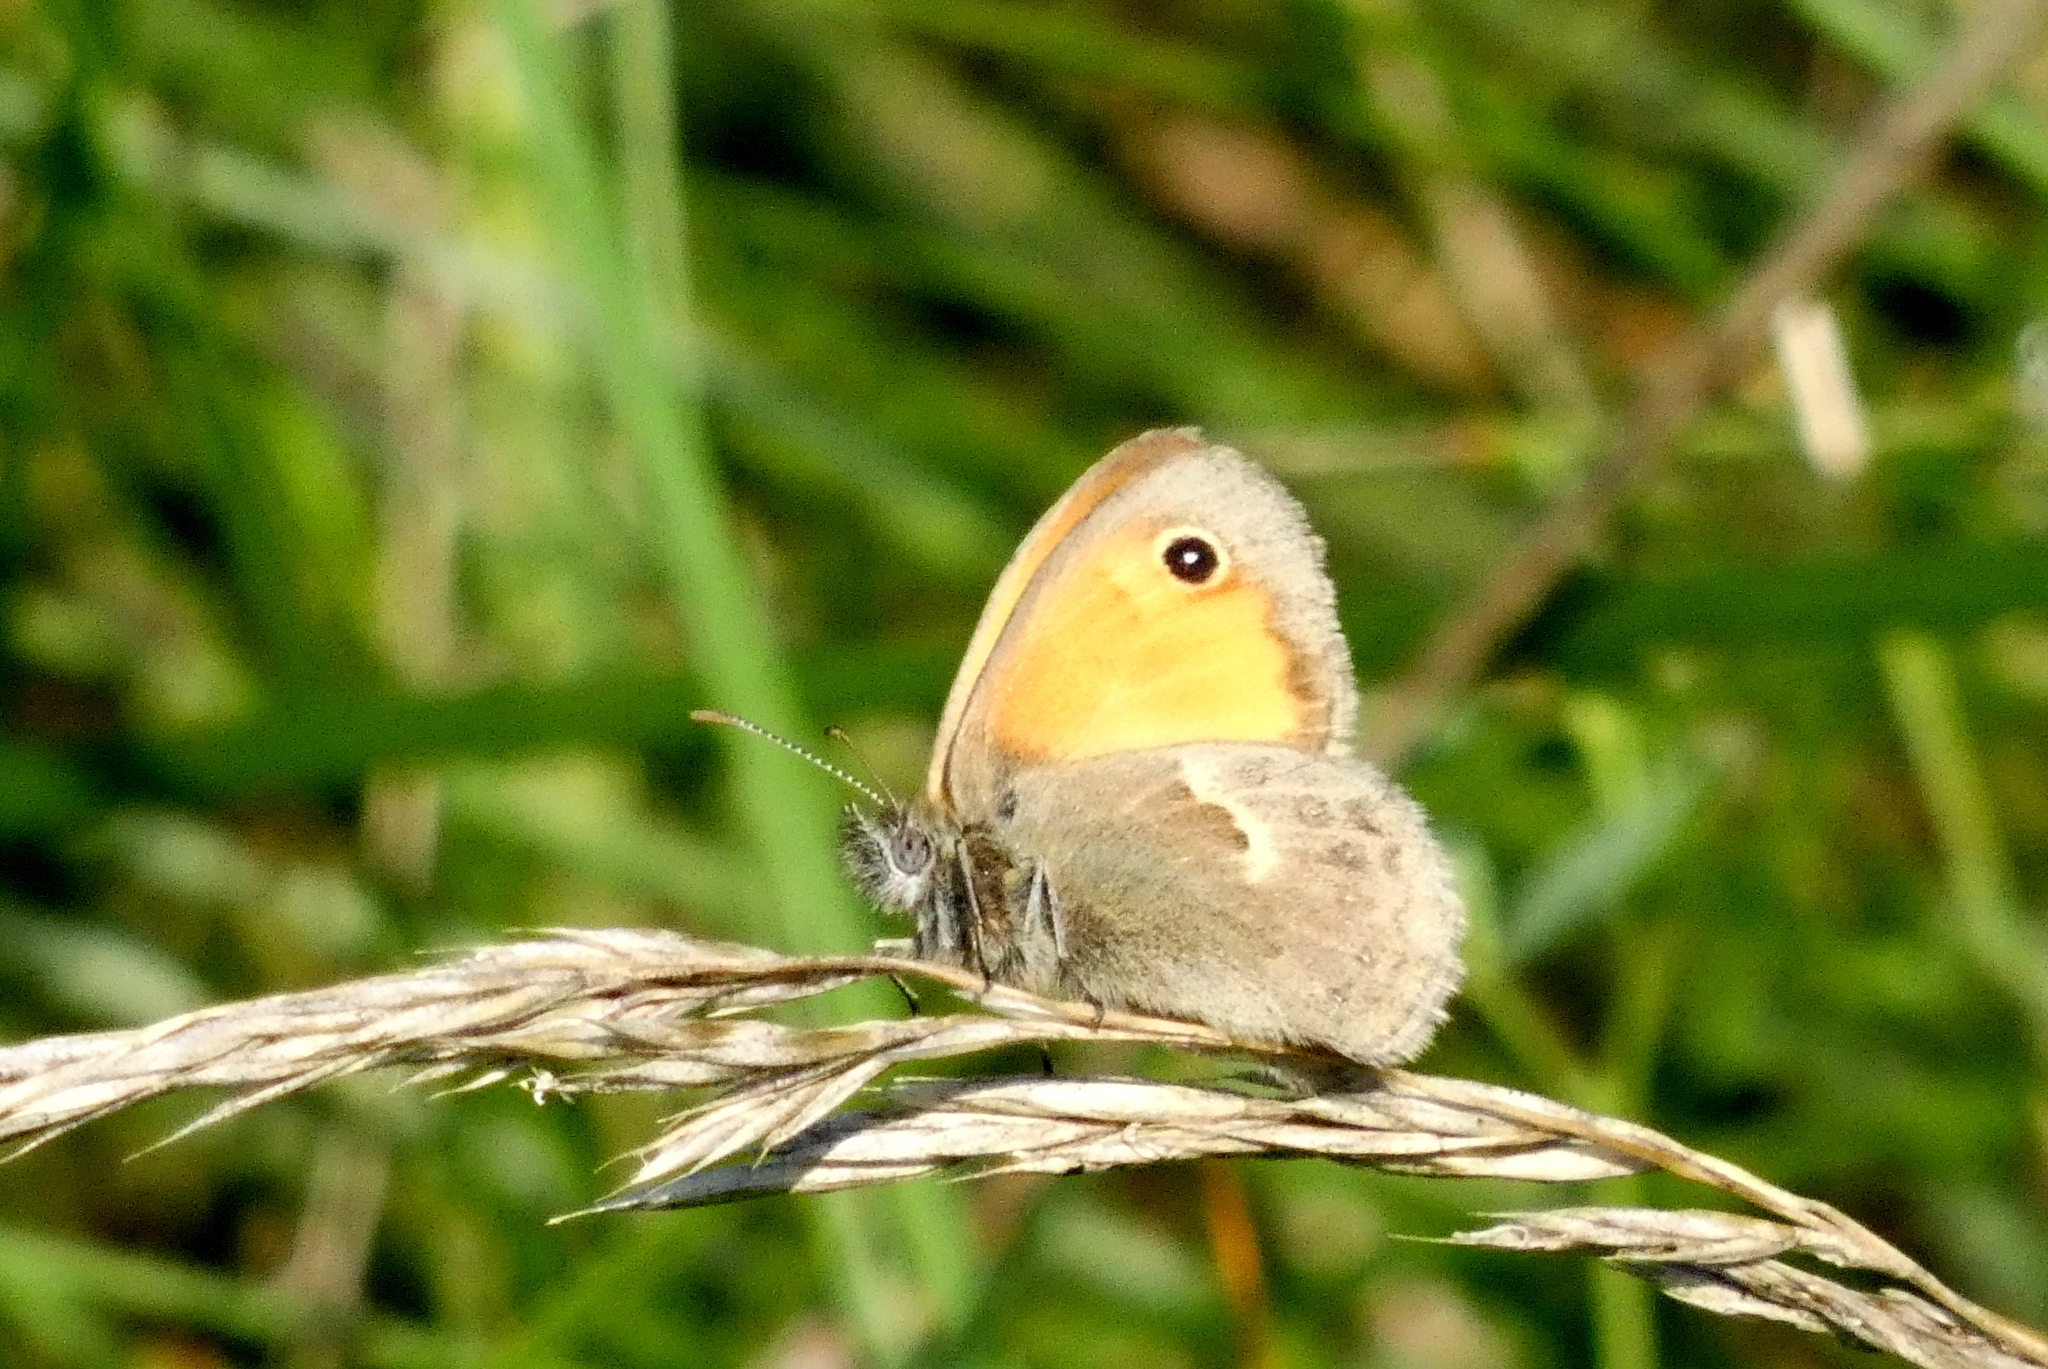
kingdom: Animalia
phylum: Arthropoda
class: Insecta
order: Lepidoptera
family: Nymphalidae
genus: Coenonympha
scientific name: Coenonympha pamphilus
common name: Small heath
